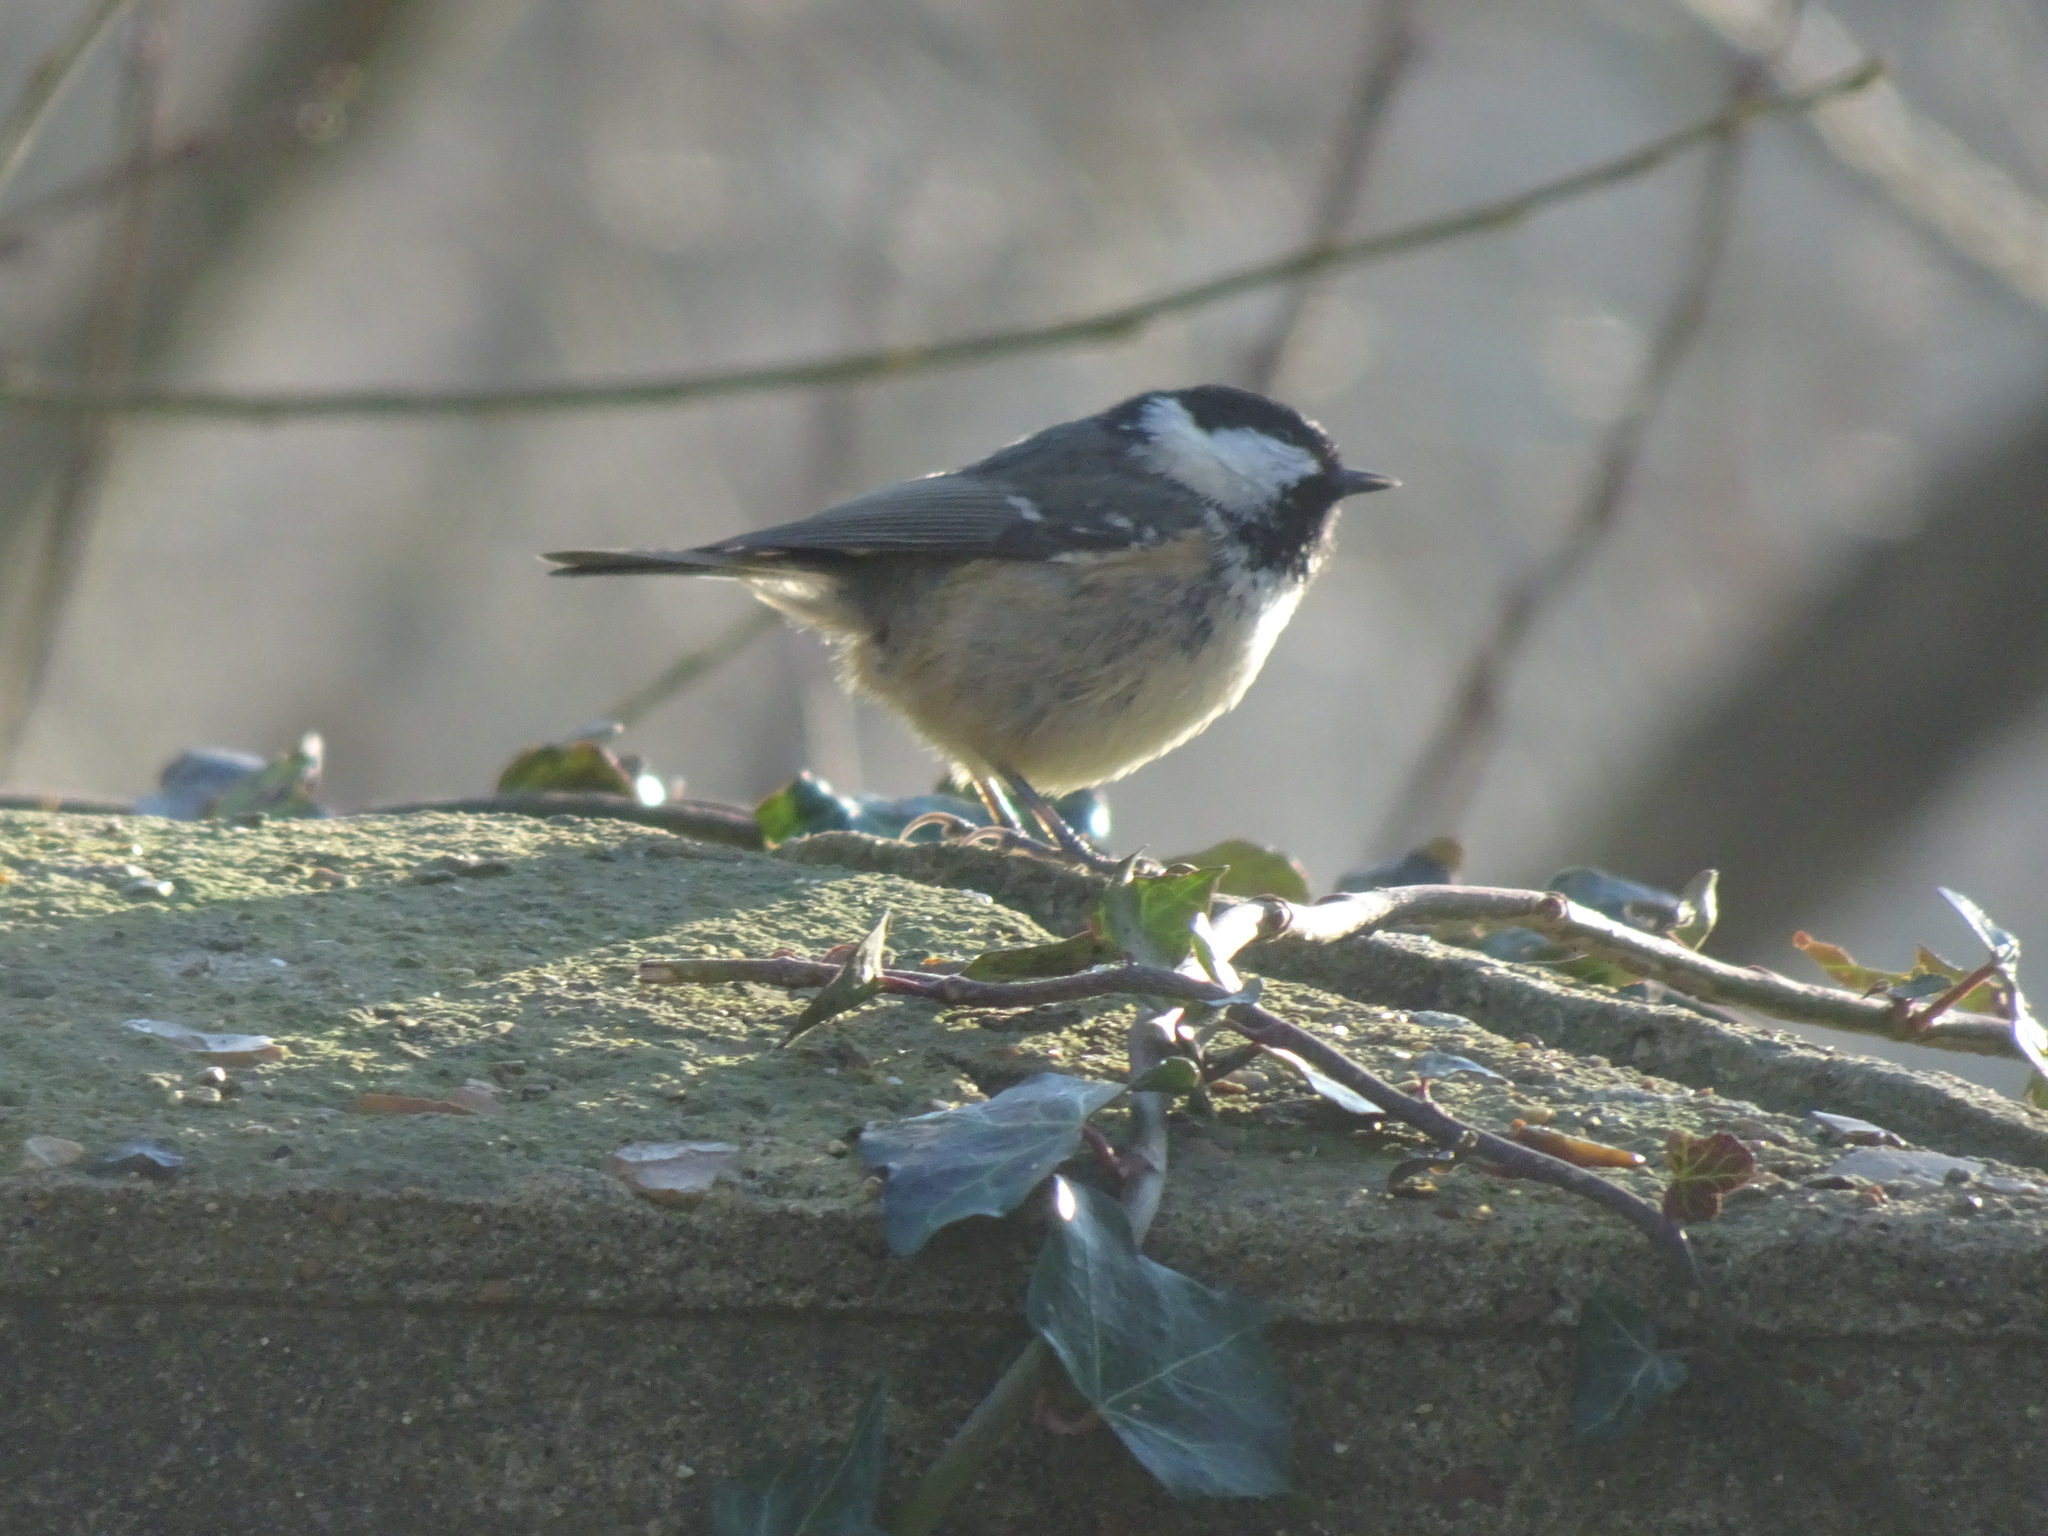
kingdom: Animalia
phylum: Chordata
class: Aves
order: Passeriformes
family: Paridae
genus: Periparus
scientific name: Periparus ater
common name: Coal tit
